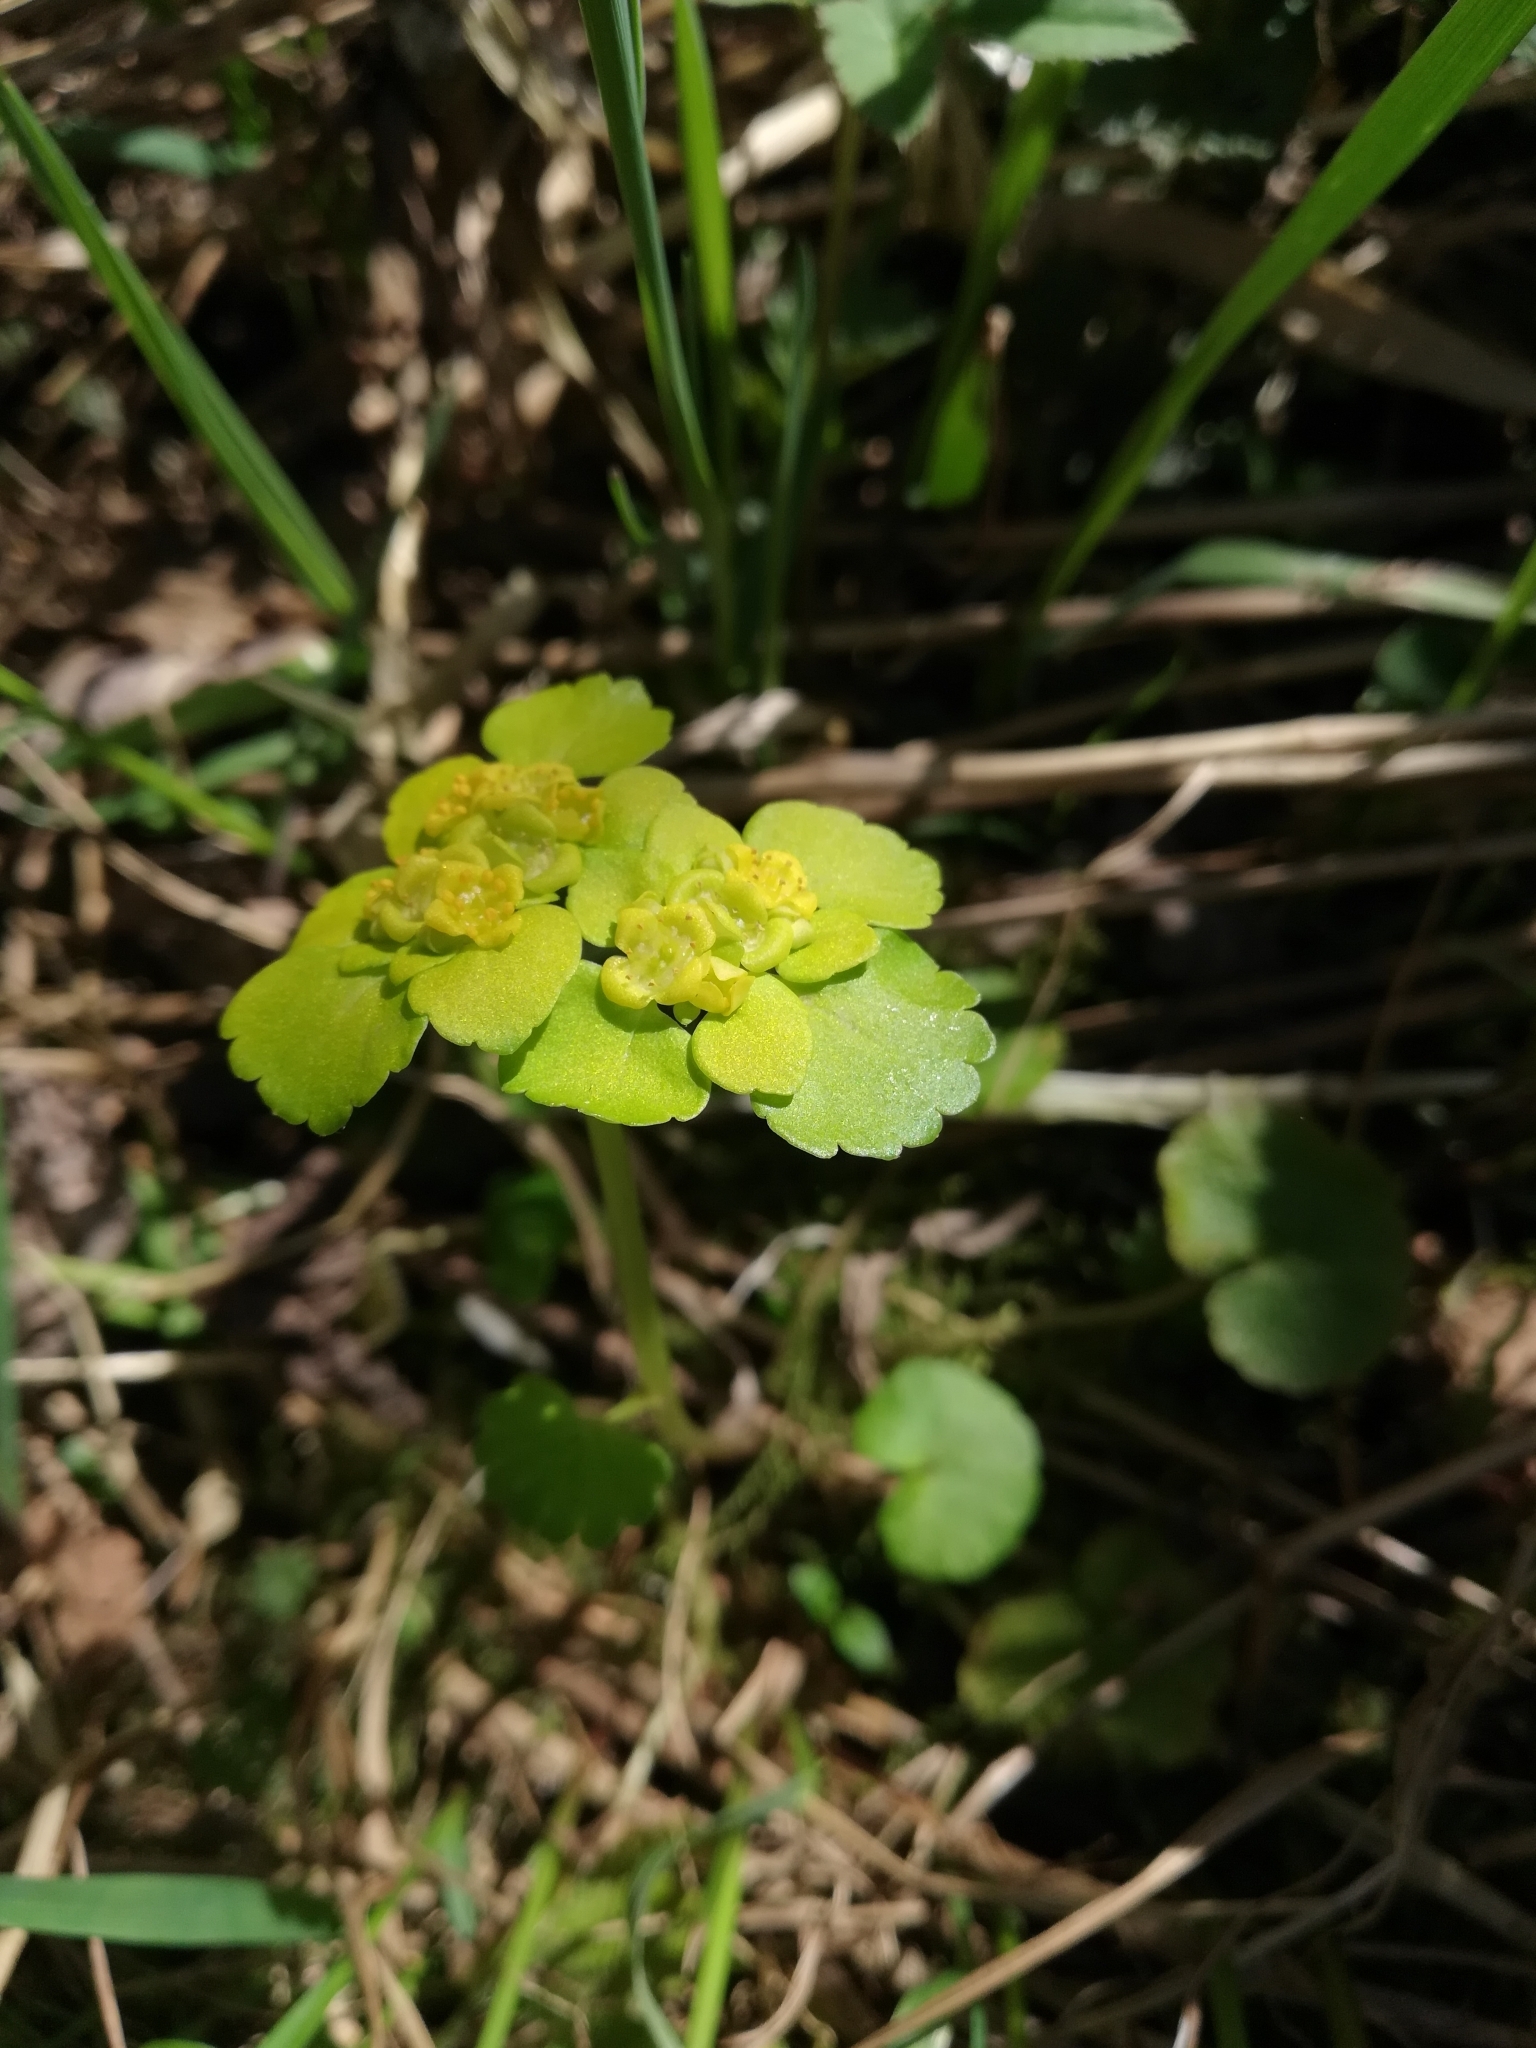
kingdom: Plantae
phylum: Tracheophyta
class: Magnoliopsida
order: Saxifragales
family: Saxifragaceae
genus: Chrysosplenium
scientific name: Chrysosplenium alternifolium
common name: Alternate-leaved golden-saxifrage
